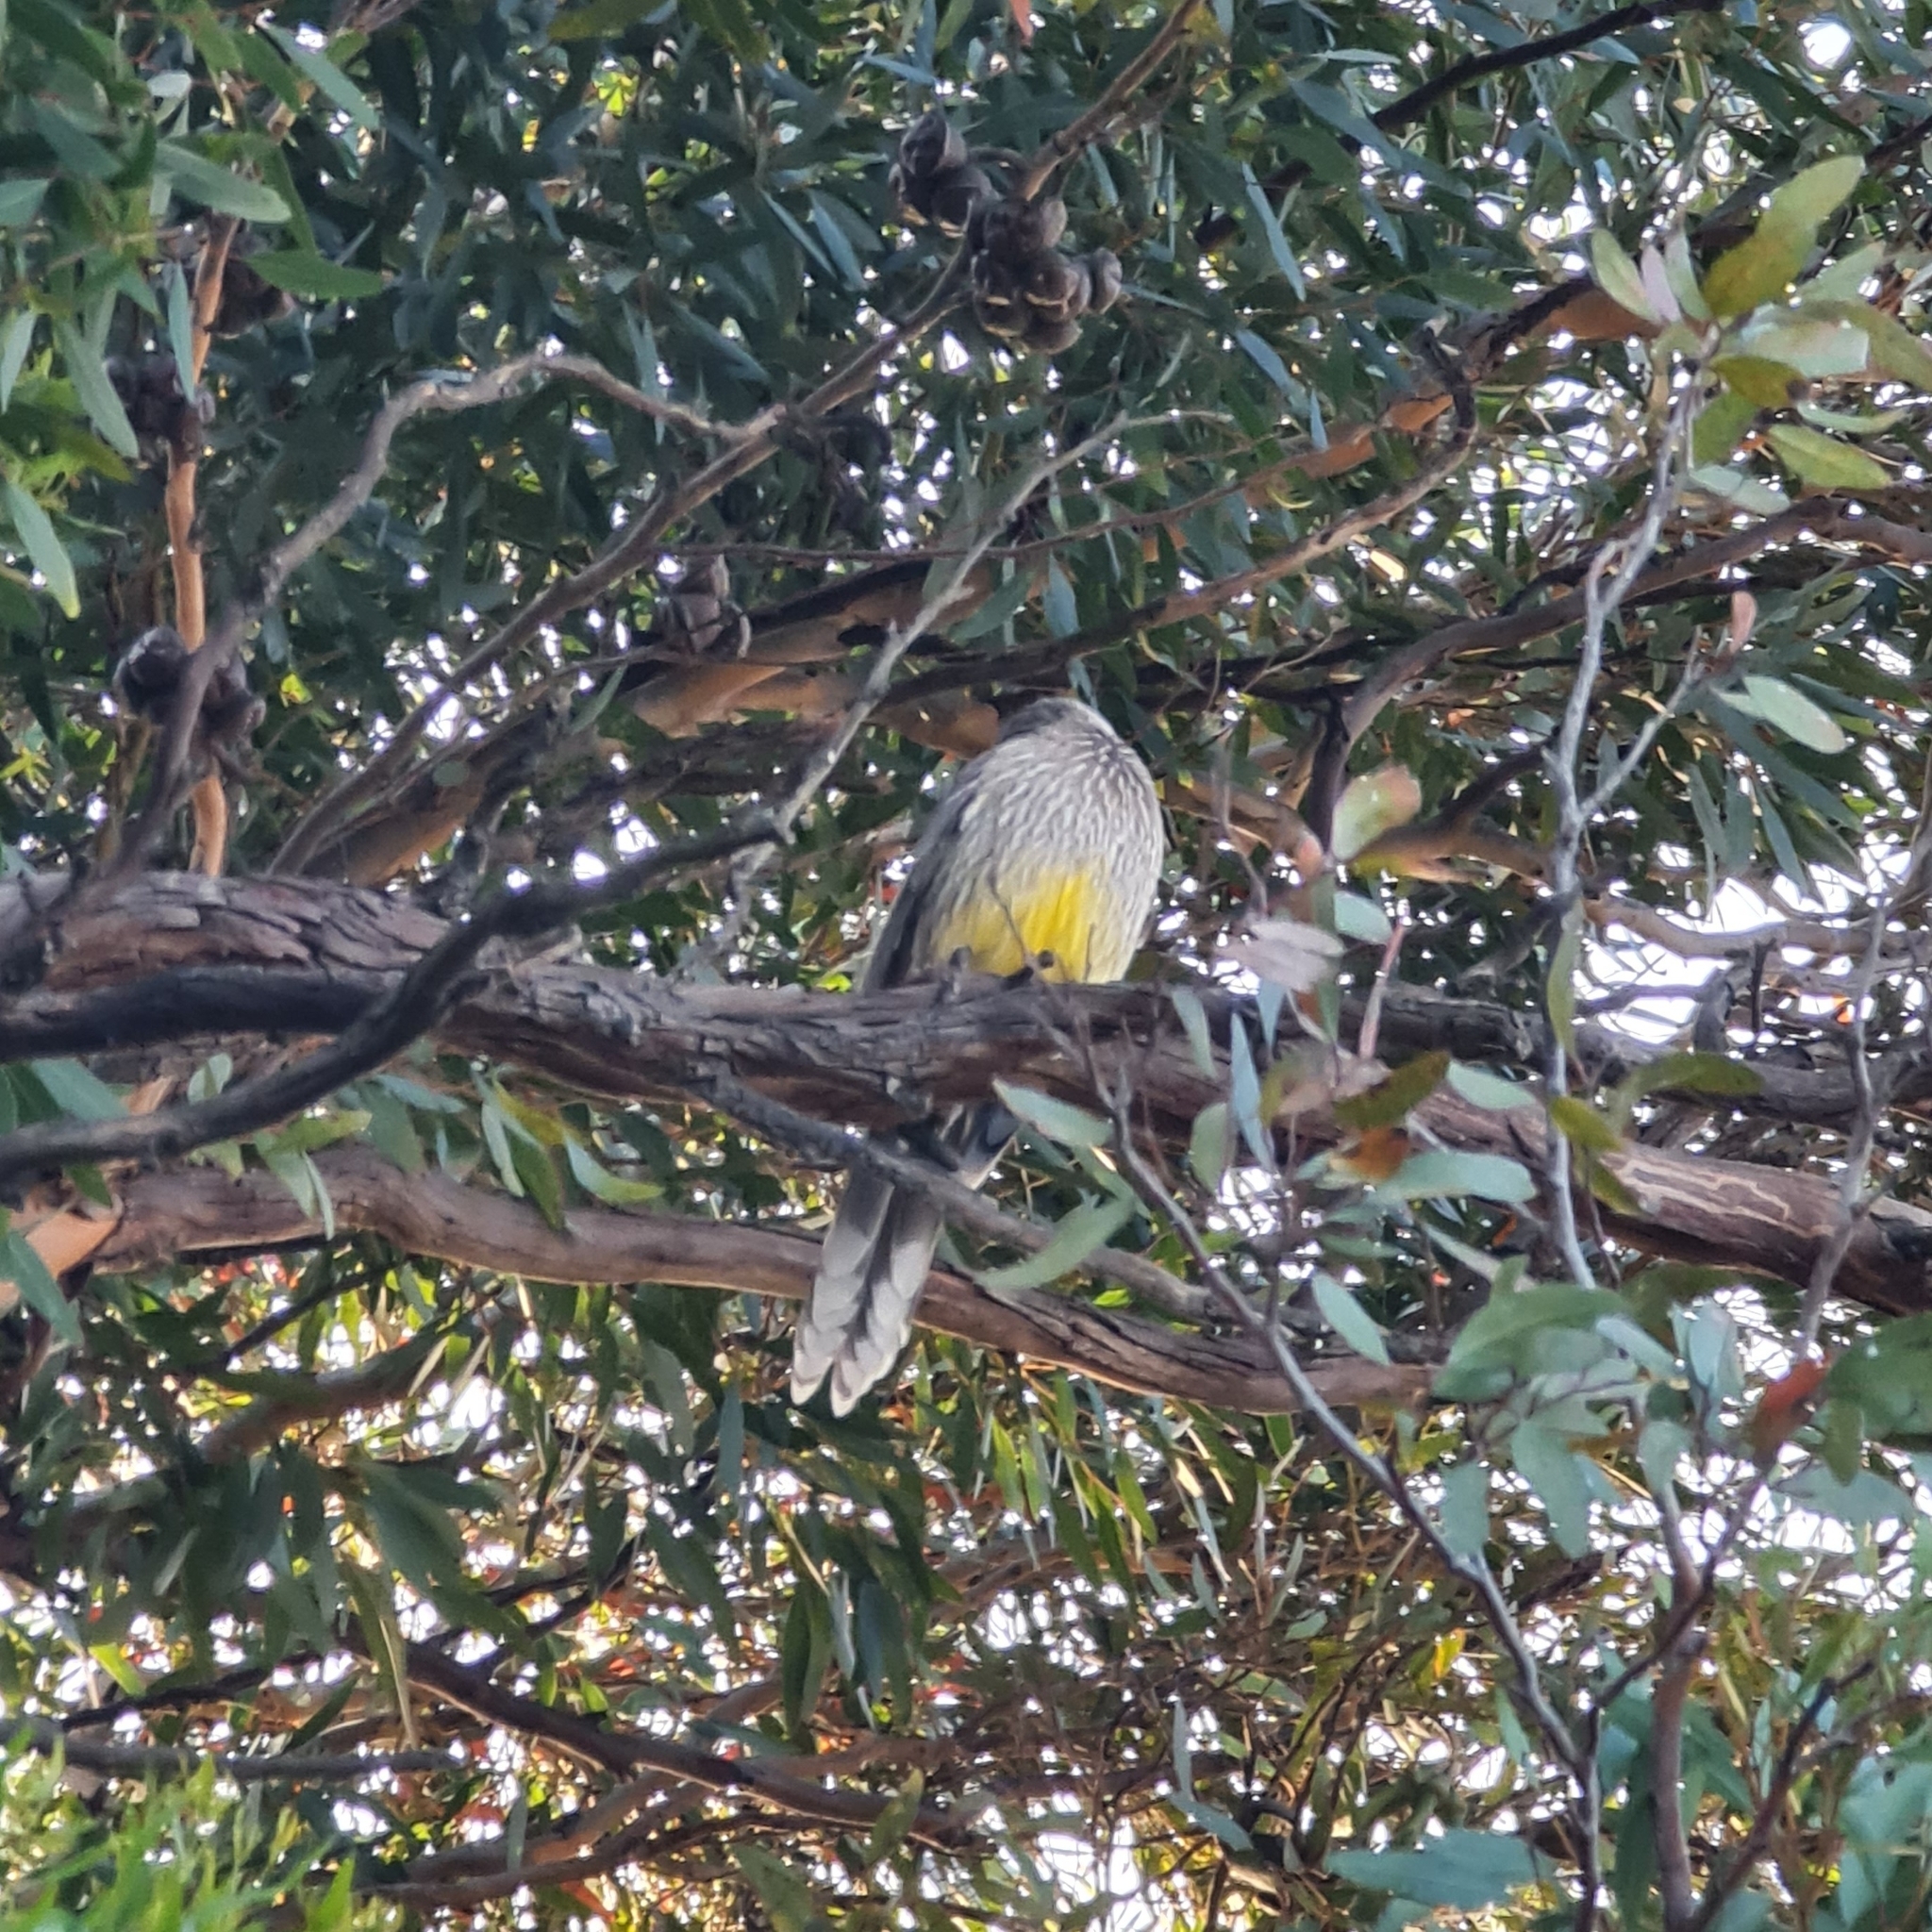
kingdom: Animalia
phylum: Chordata
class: Aves
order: Passeriformes
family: Meliphagidae
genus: Anthochaera
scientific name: Anthochaera carunculata
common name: Red wattlebird
